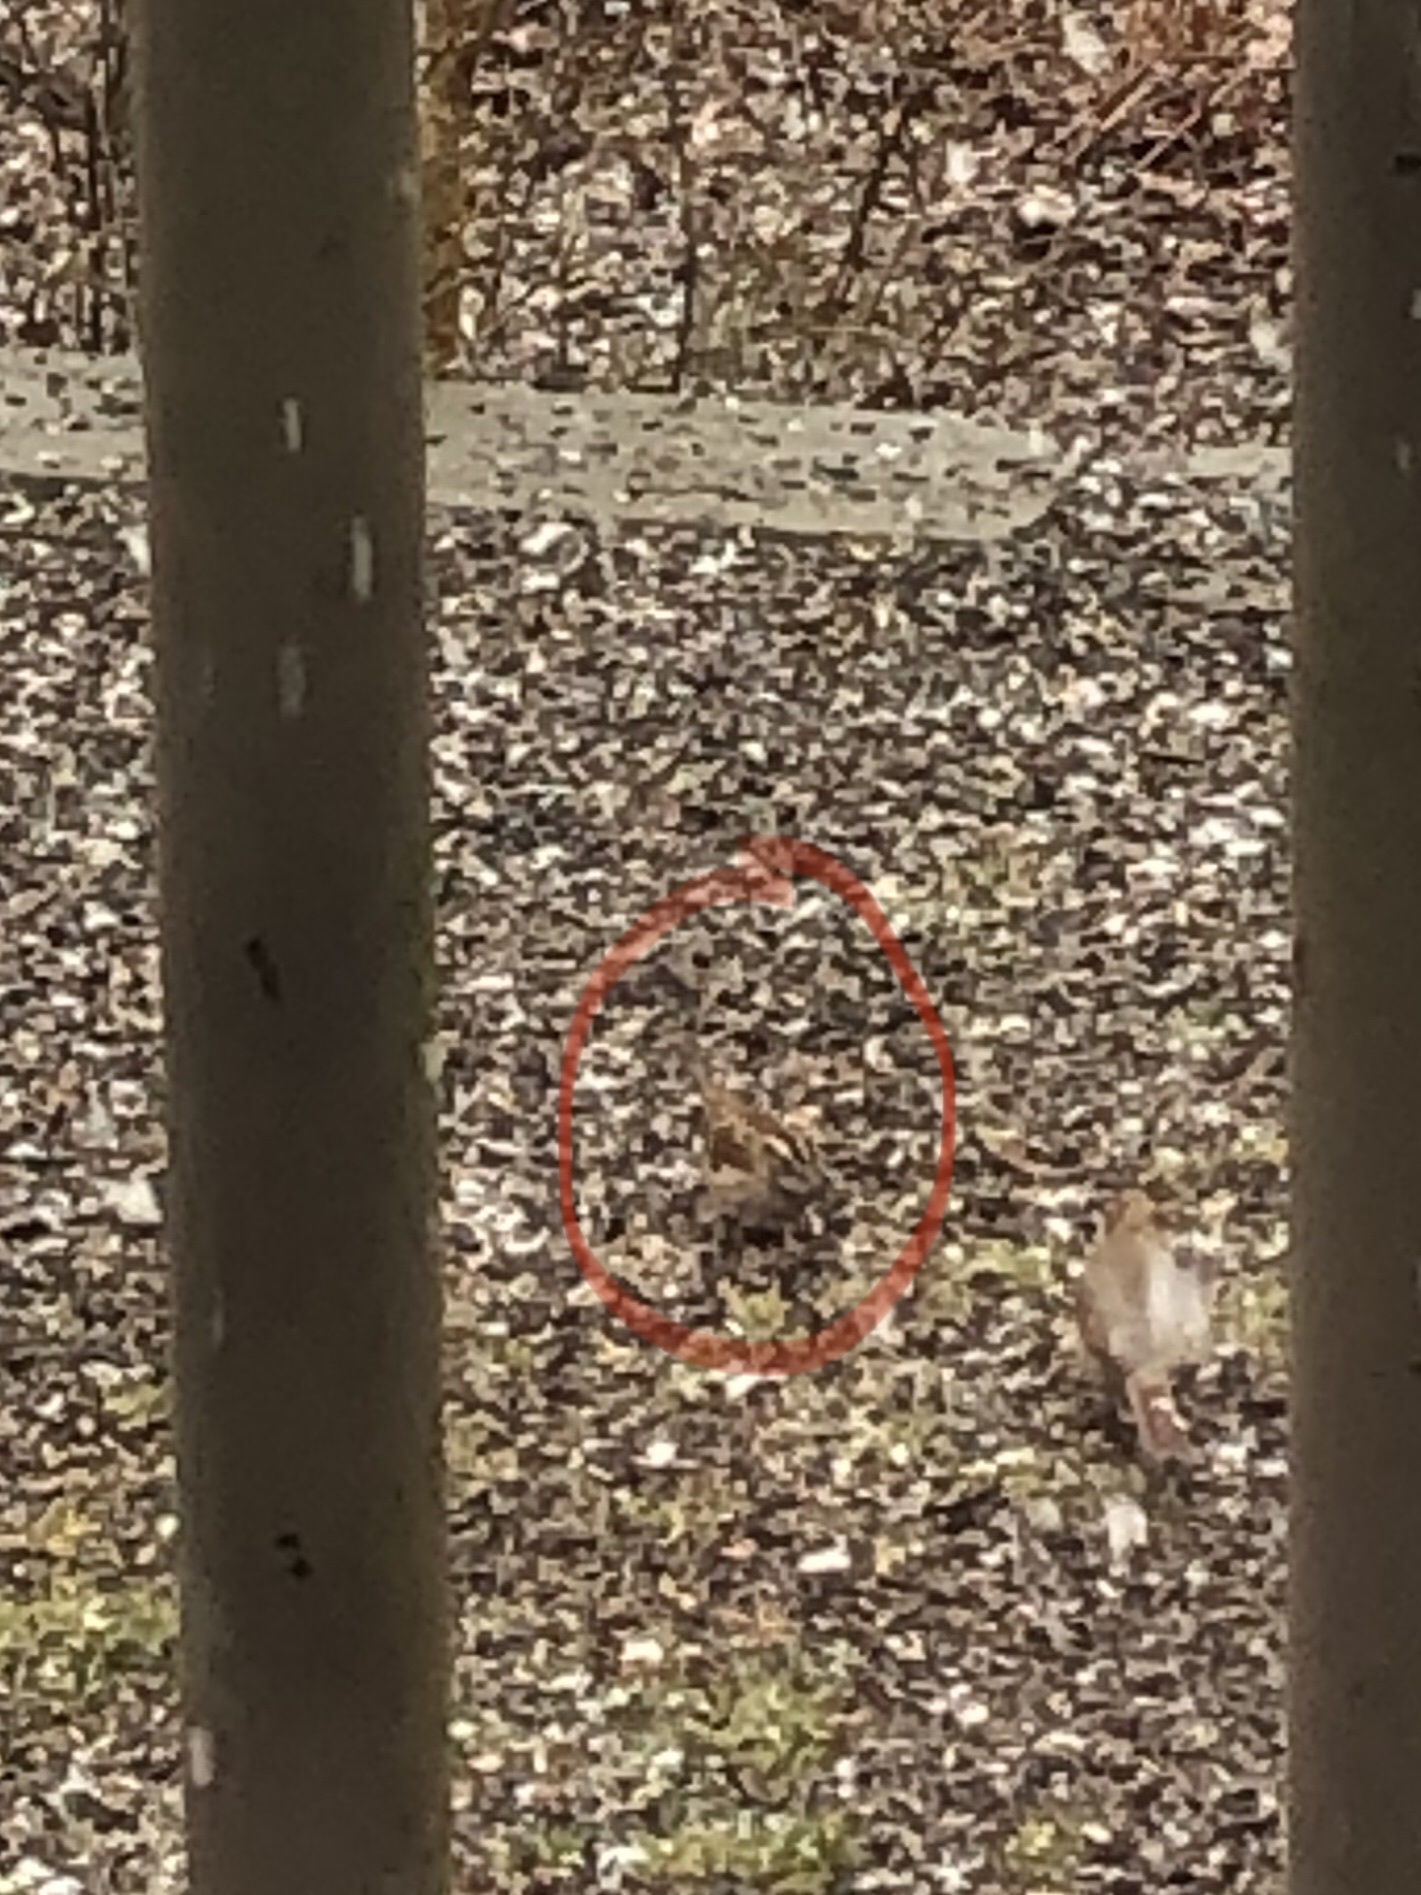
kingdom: Animalia
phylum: Chordata
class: Aves
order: Passeriformes
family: Passerellidae
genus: Zonotrichia
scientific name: Zonotrichia albicollis
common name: White-throated sparrow
